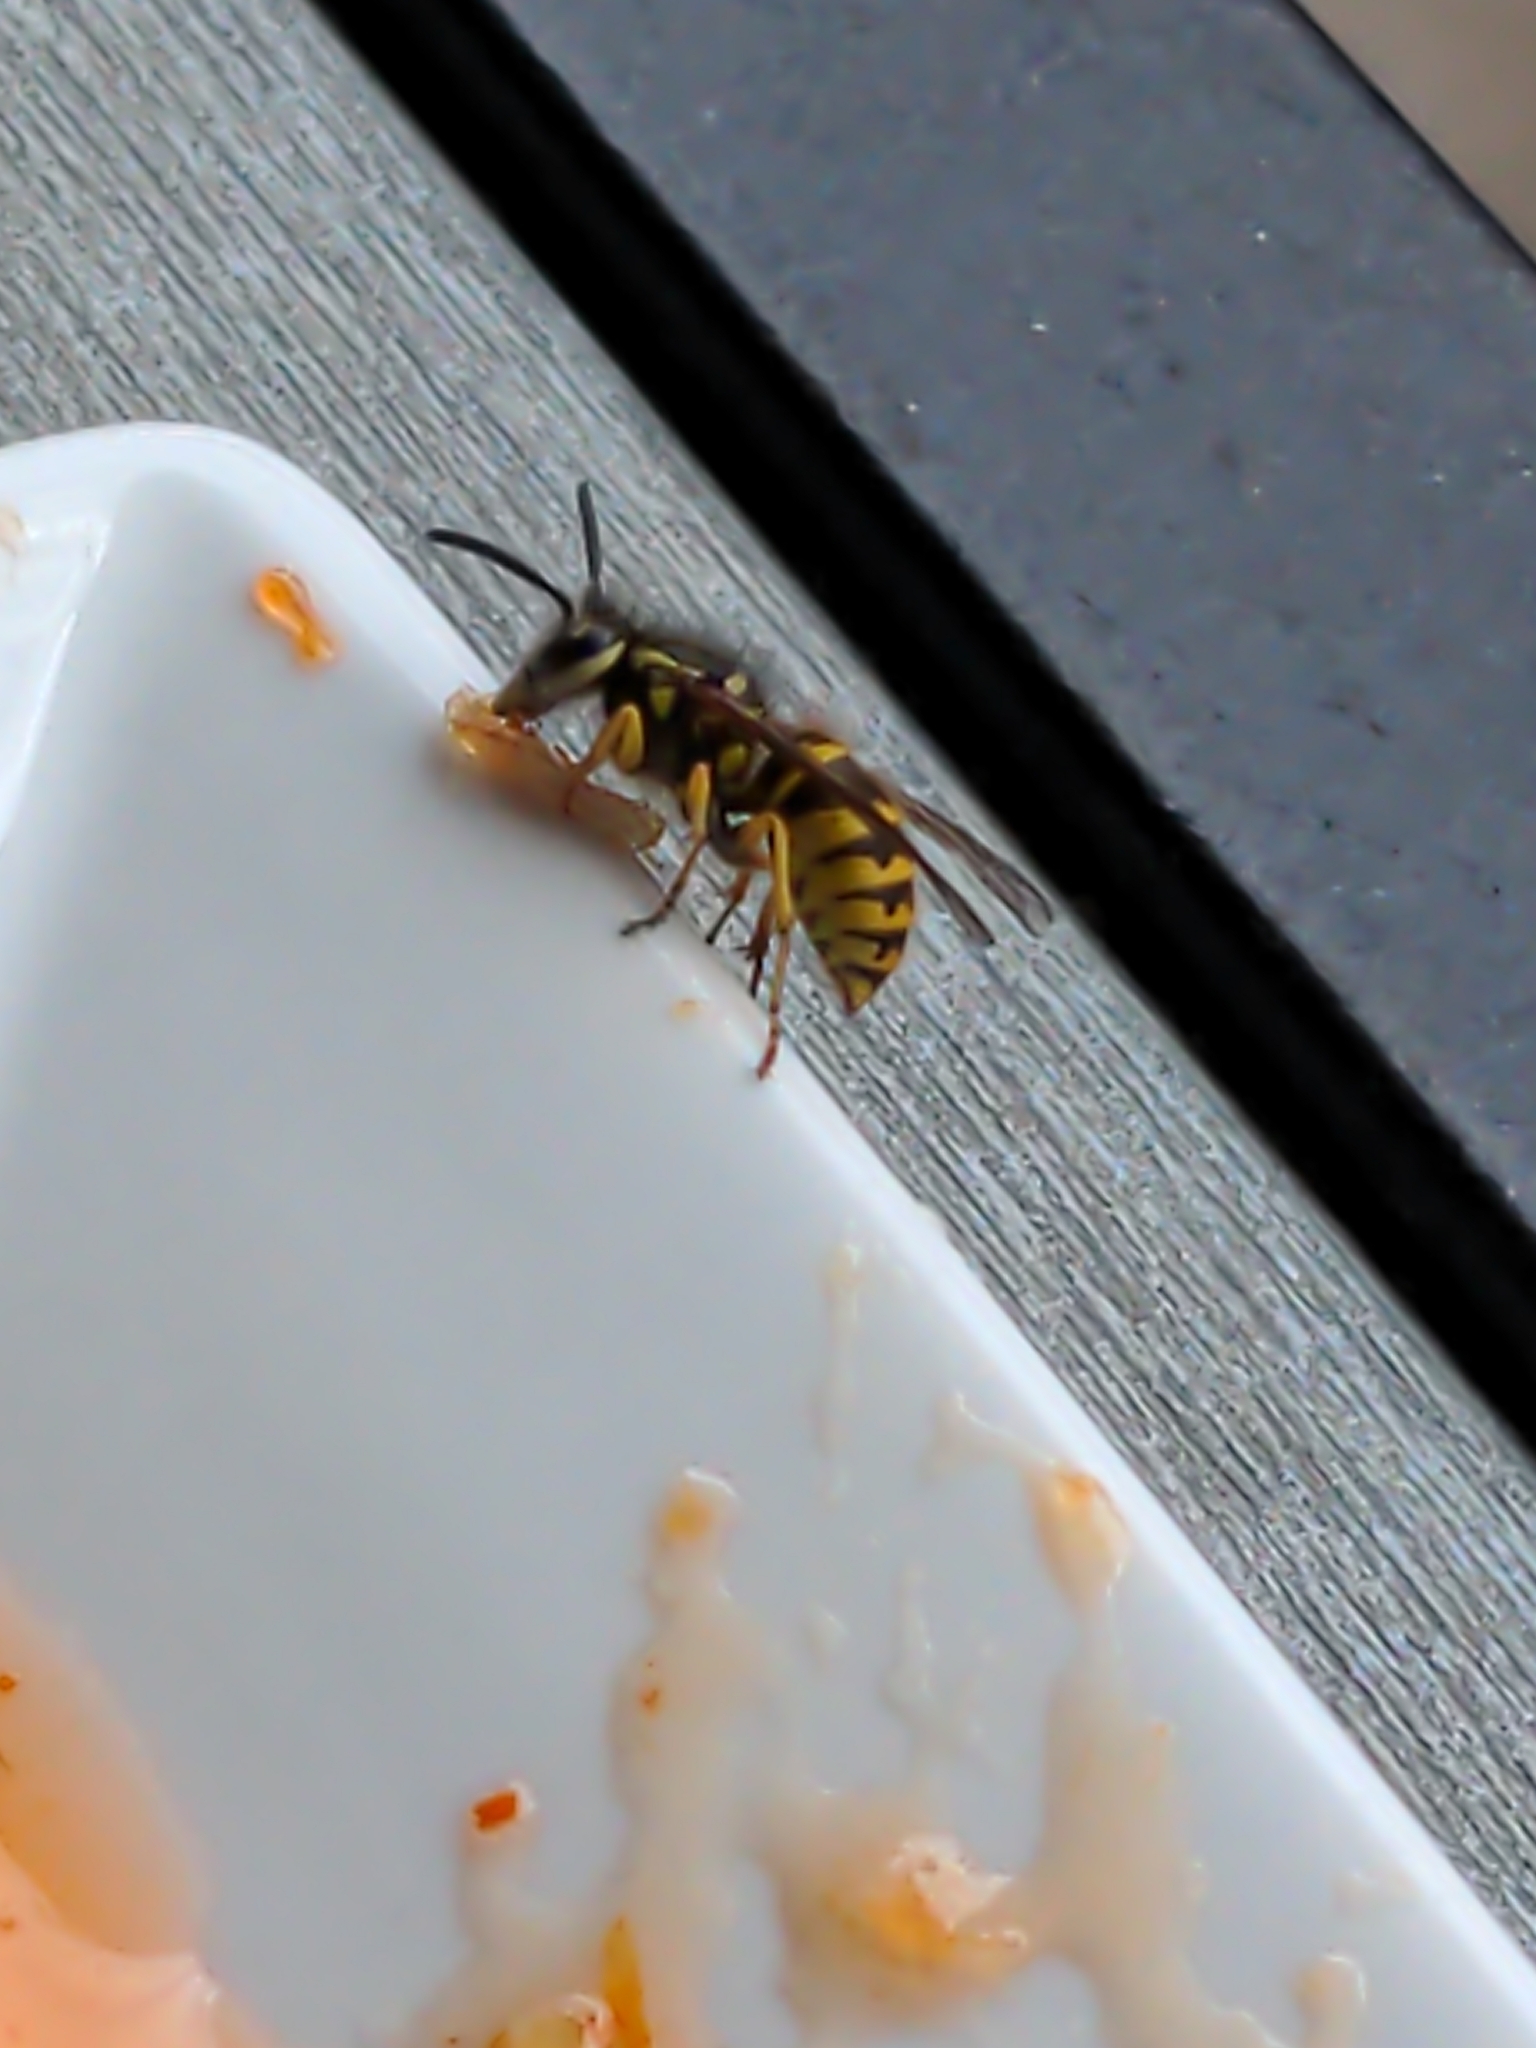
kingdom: Animalia
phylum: Arthropoda
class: Insecta
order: Hymenoptera
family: Vespidae
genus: Vespula
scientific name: Vespula
